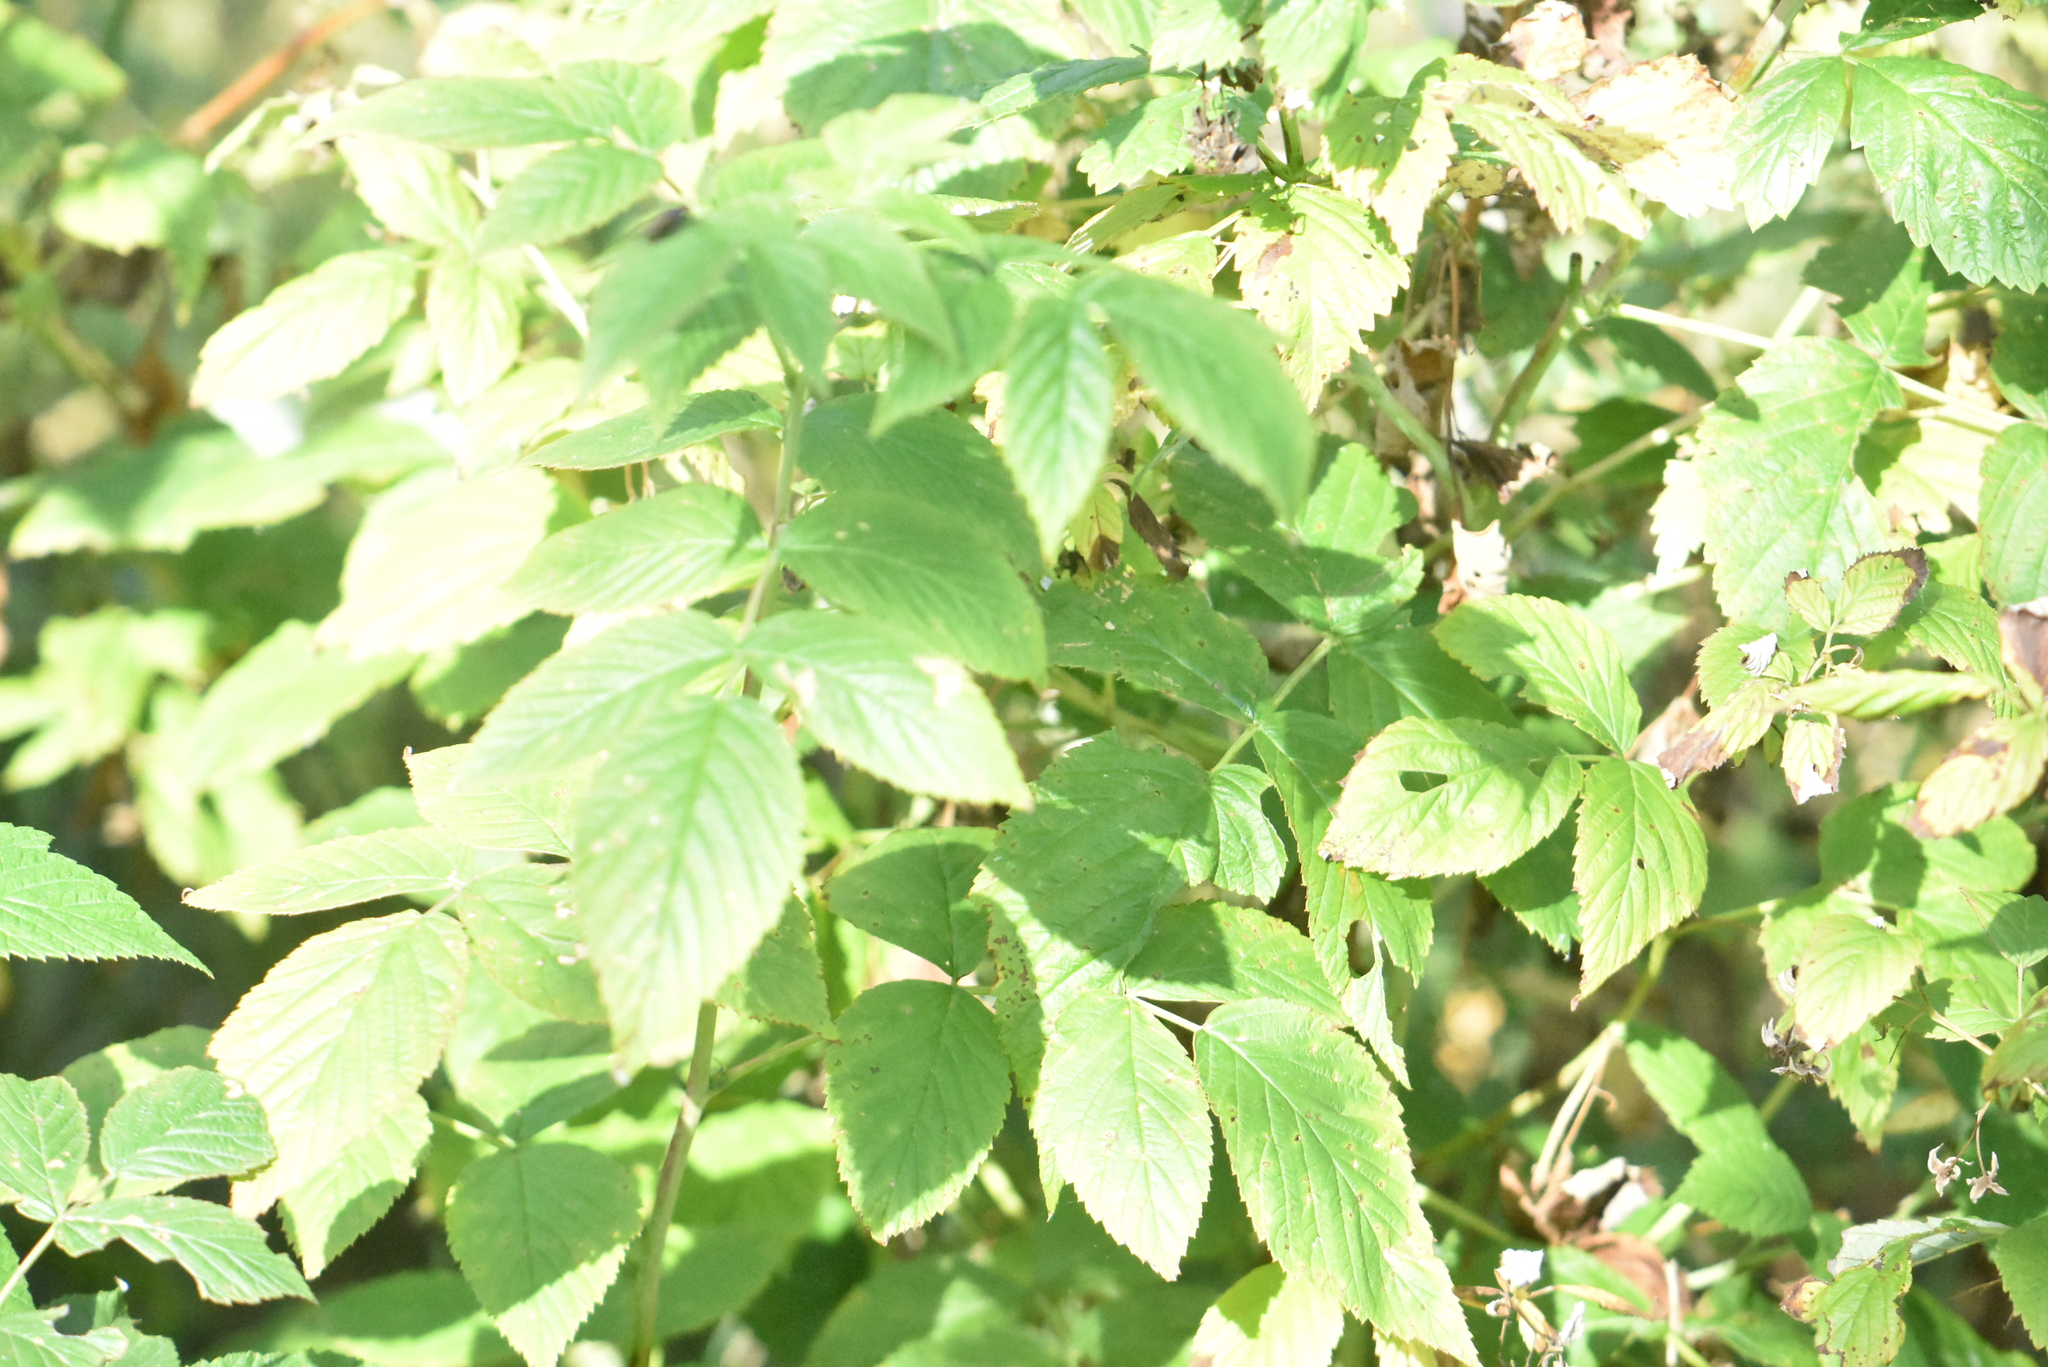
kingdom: Plantae
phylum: Tracheophyta
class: Magnoliopsida
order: Rosales
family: Rosaceae
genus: Rubus
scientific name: Rubus idaeus
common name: Raspberry
